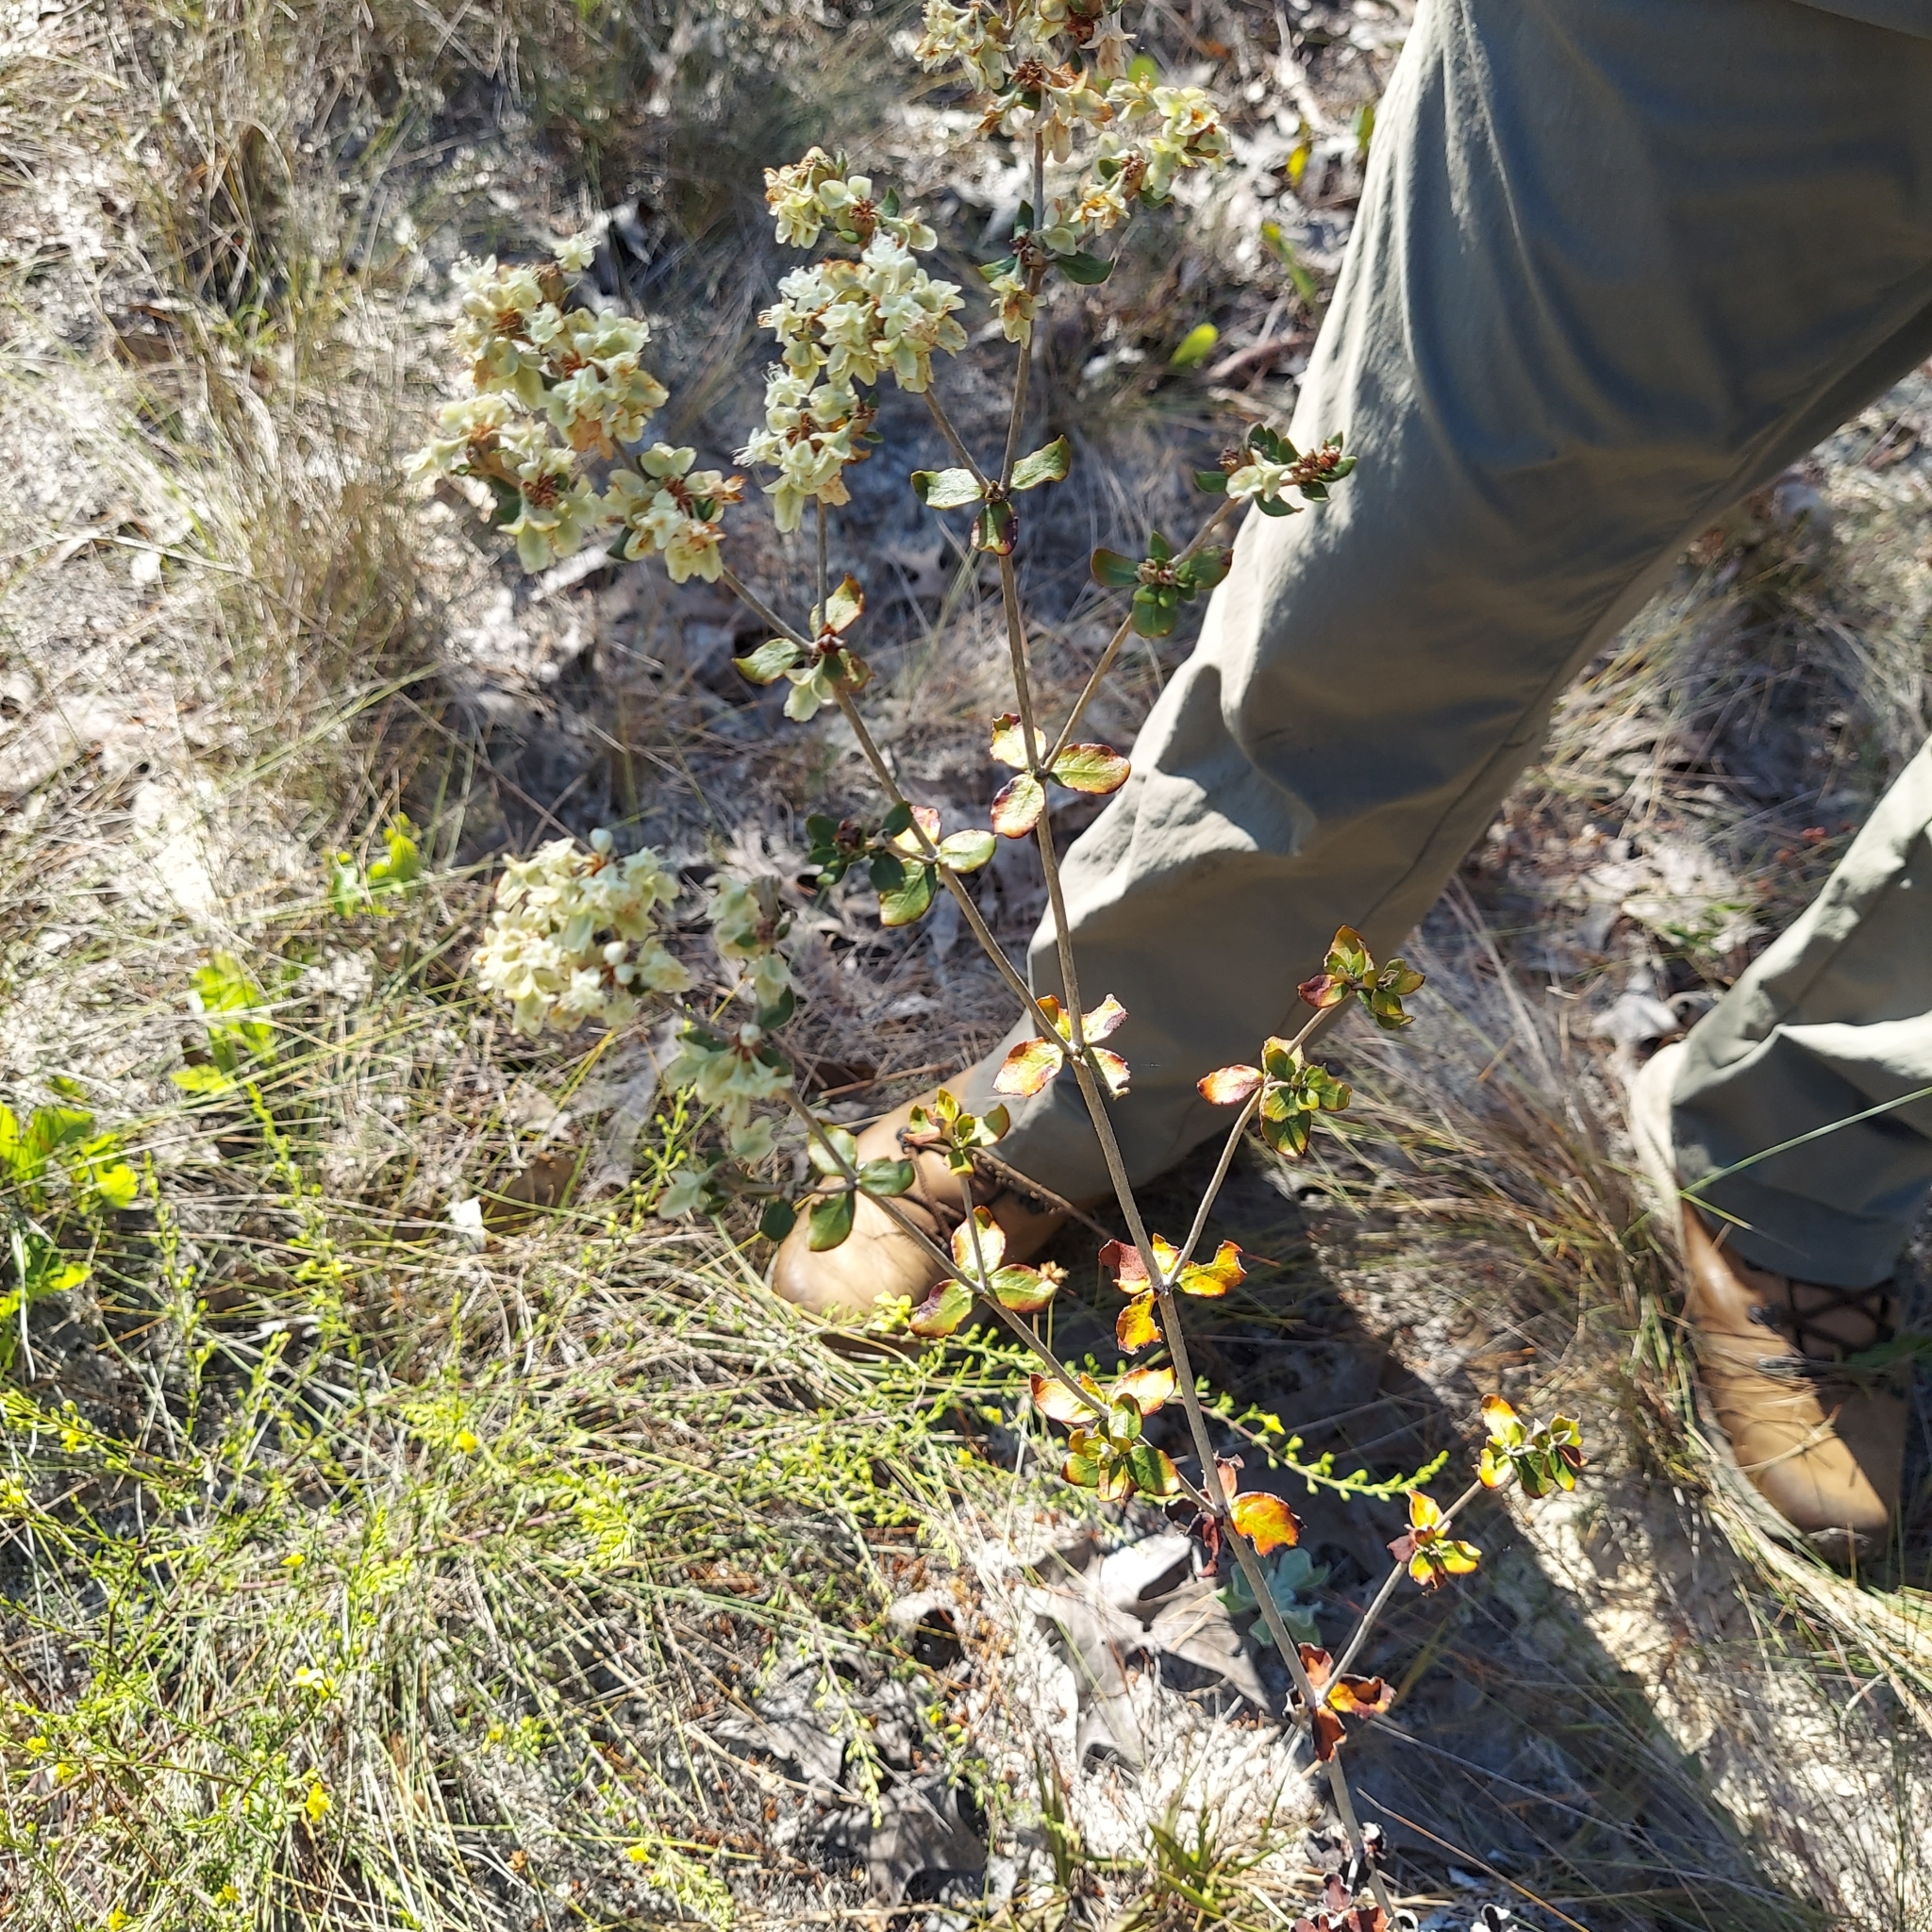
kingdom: Plantae
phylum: Tracheophyta
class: Magnoliopsida
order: Caryophyllales
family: Polygonaceae
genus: Eriogonum
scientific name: Eriogonum tomentosum
